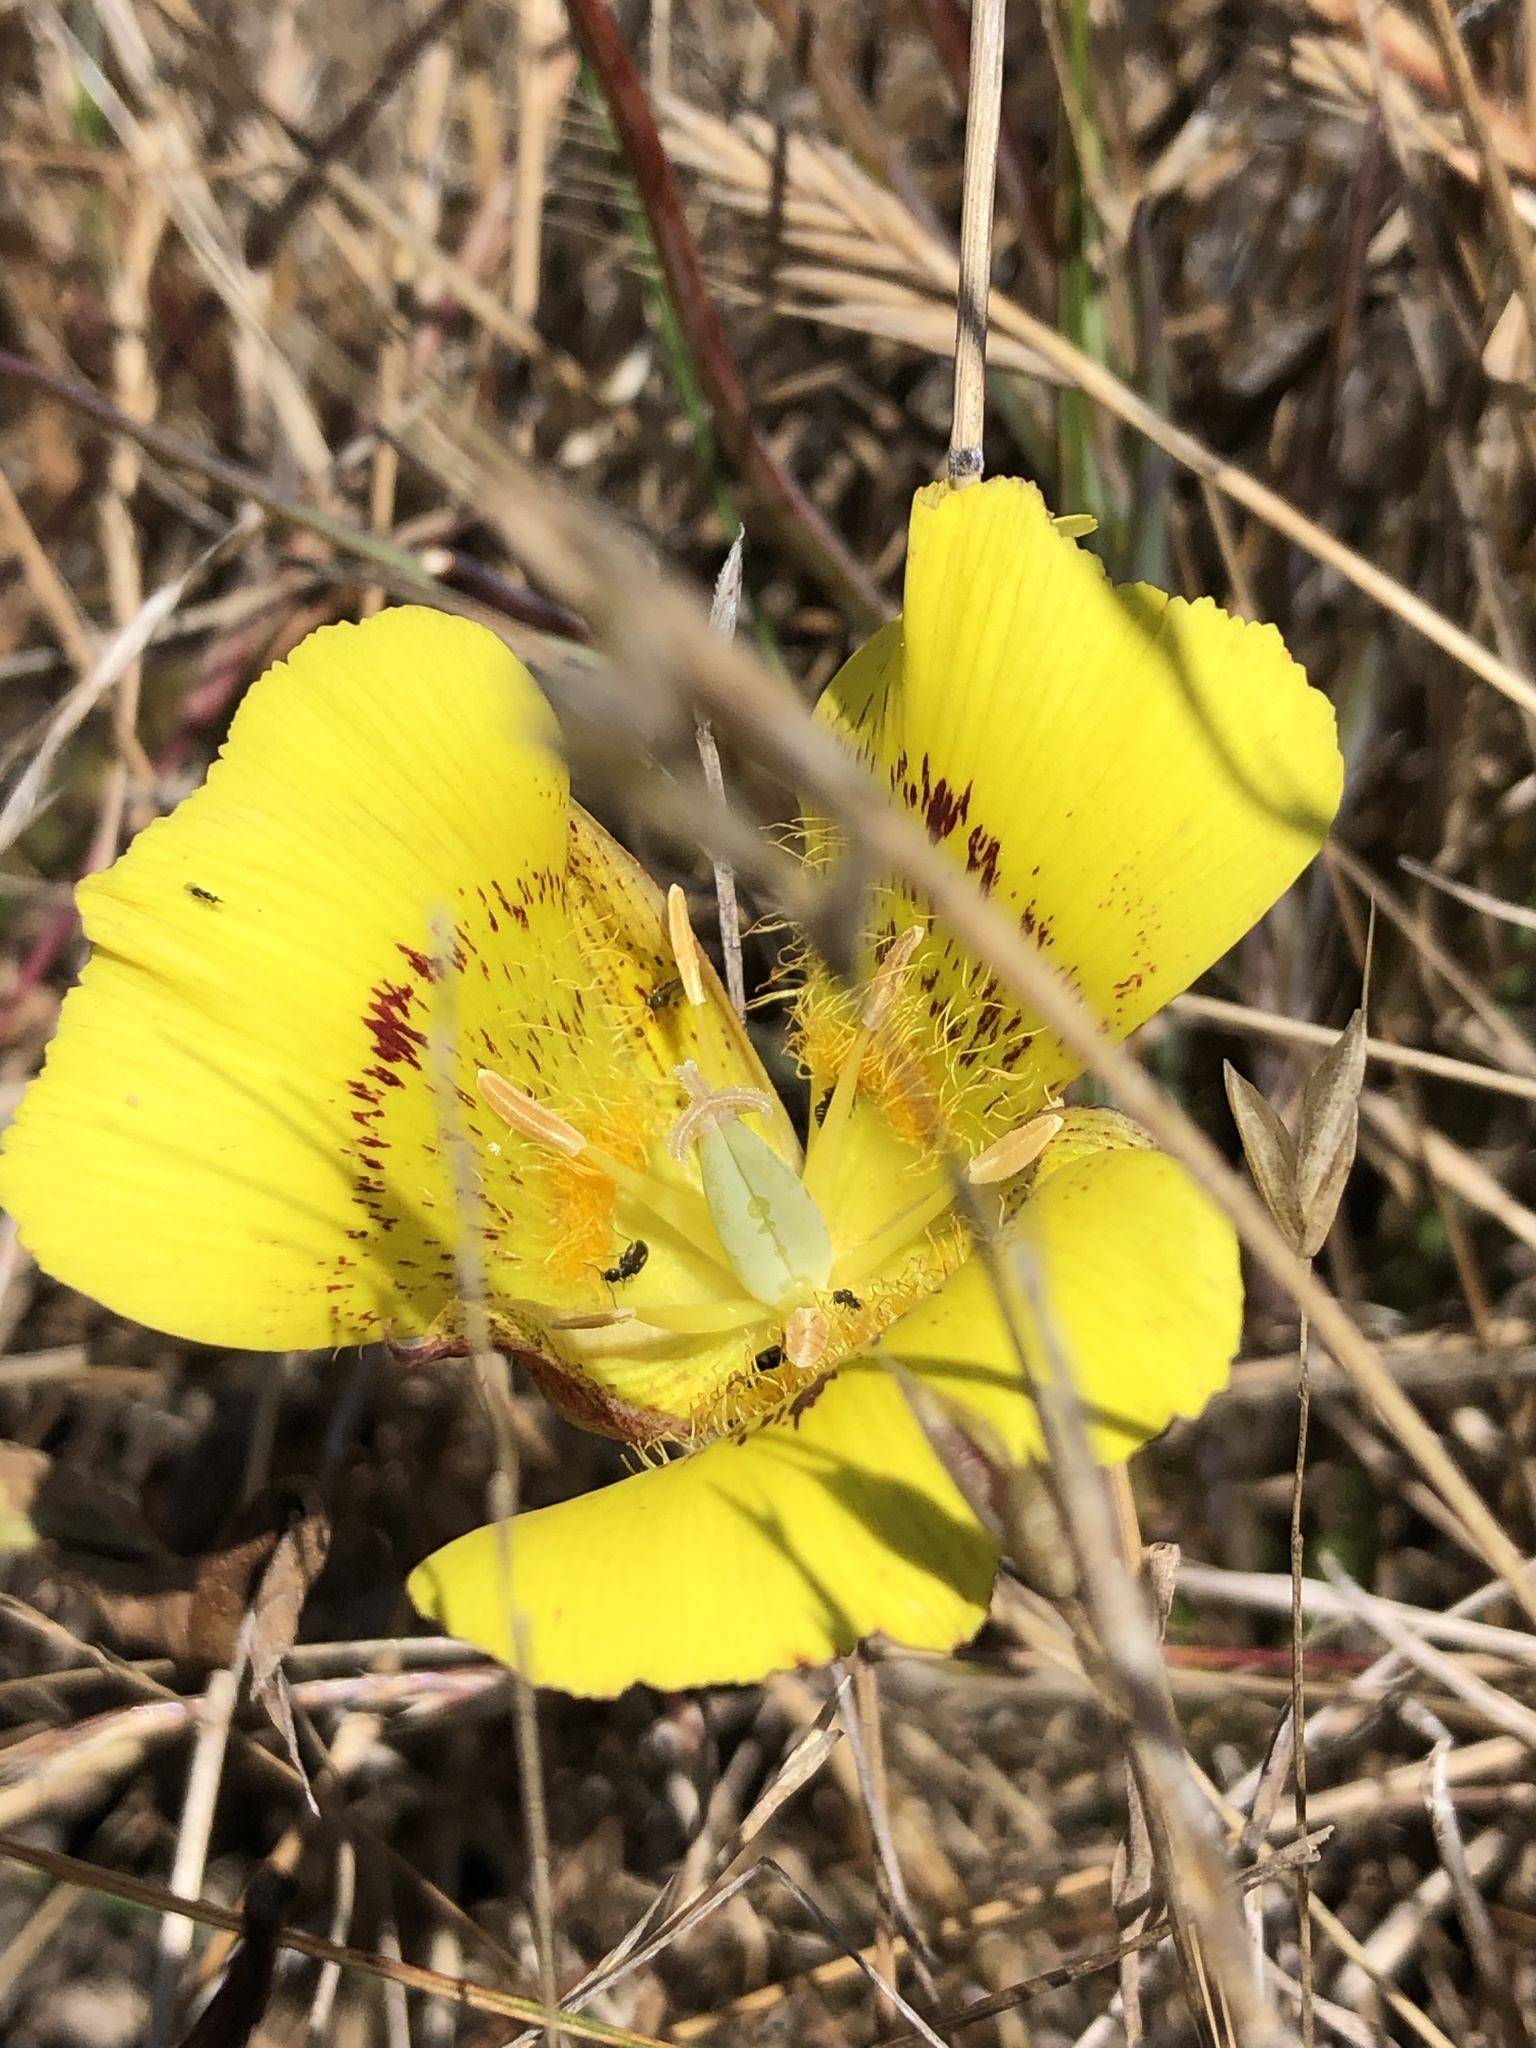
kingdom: Plantae
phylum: Tracheophyta
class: Liliopsida
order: Liliales
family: Liliaceae
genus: Calochortus
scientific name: Calochortus luteus
